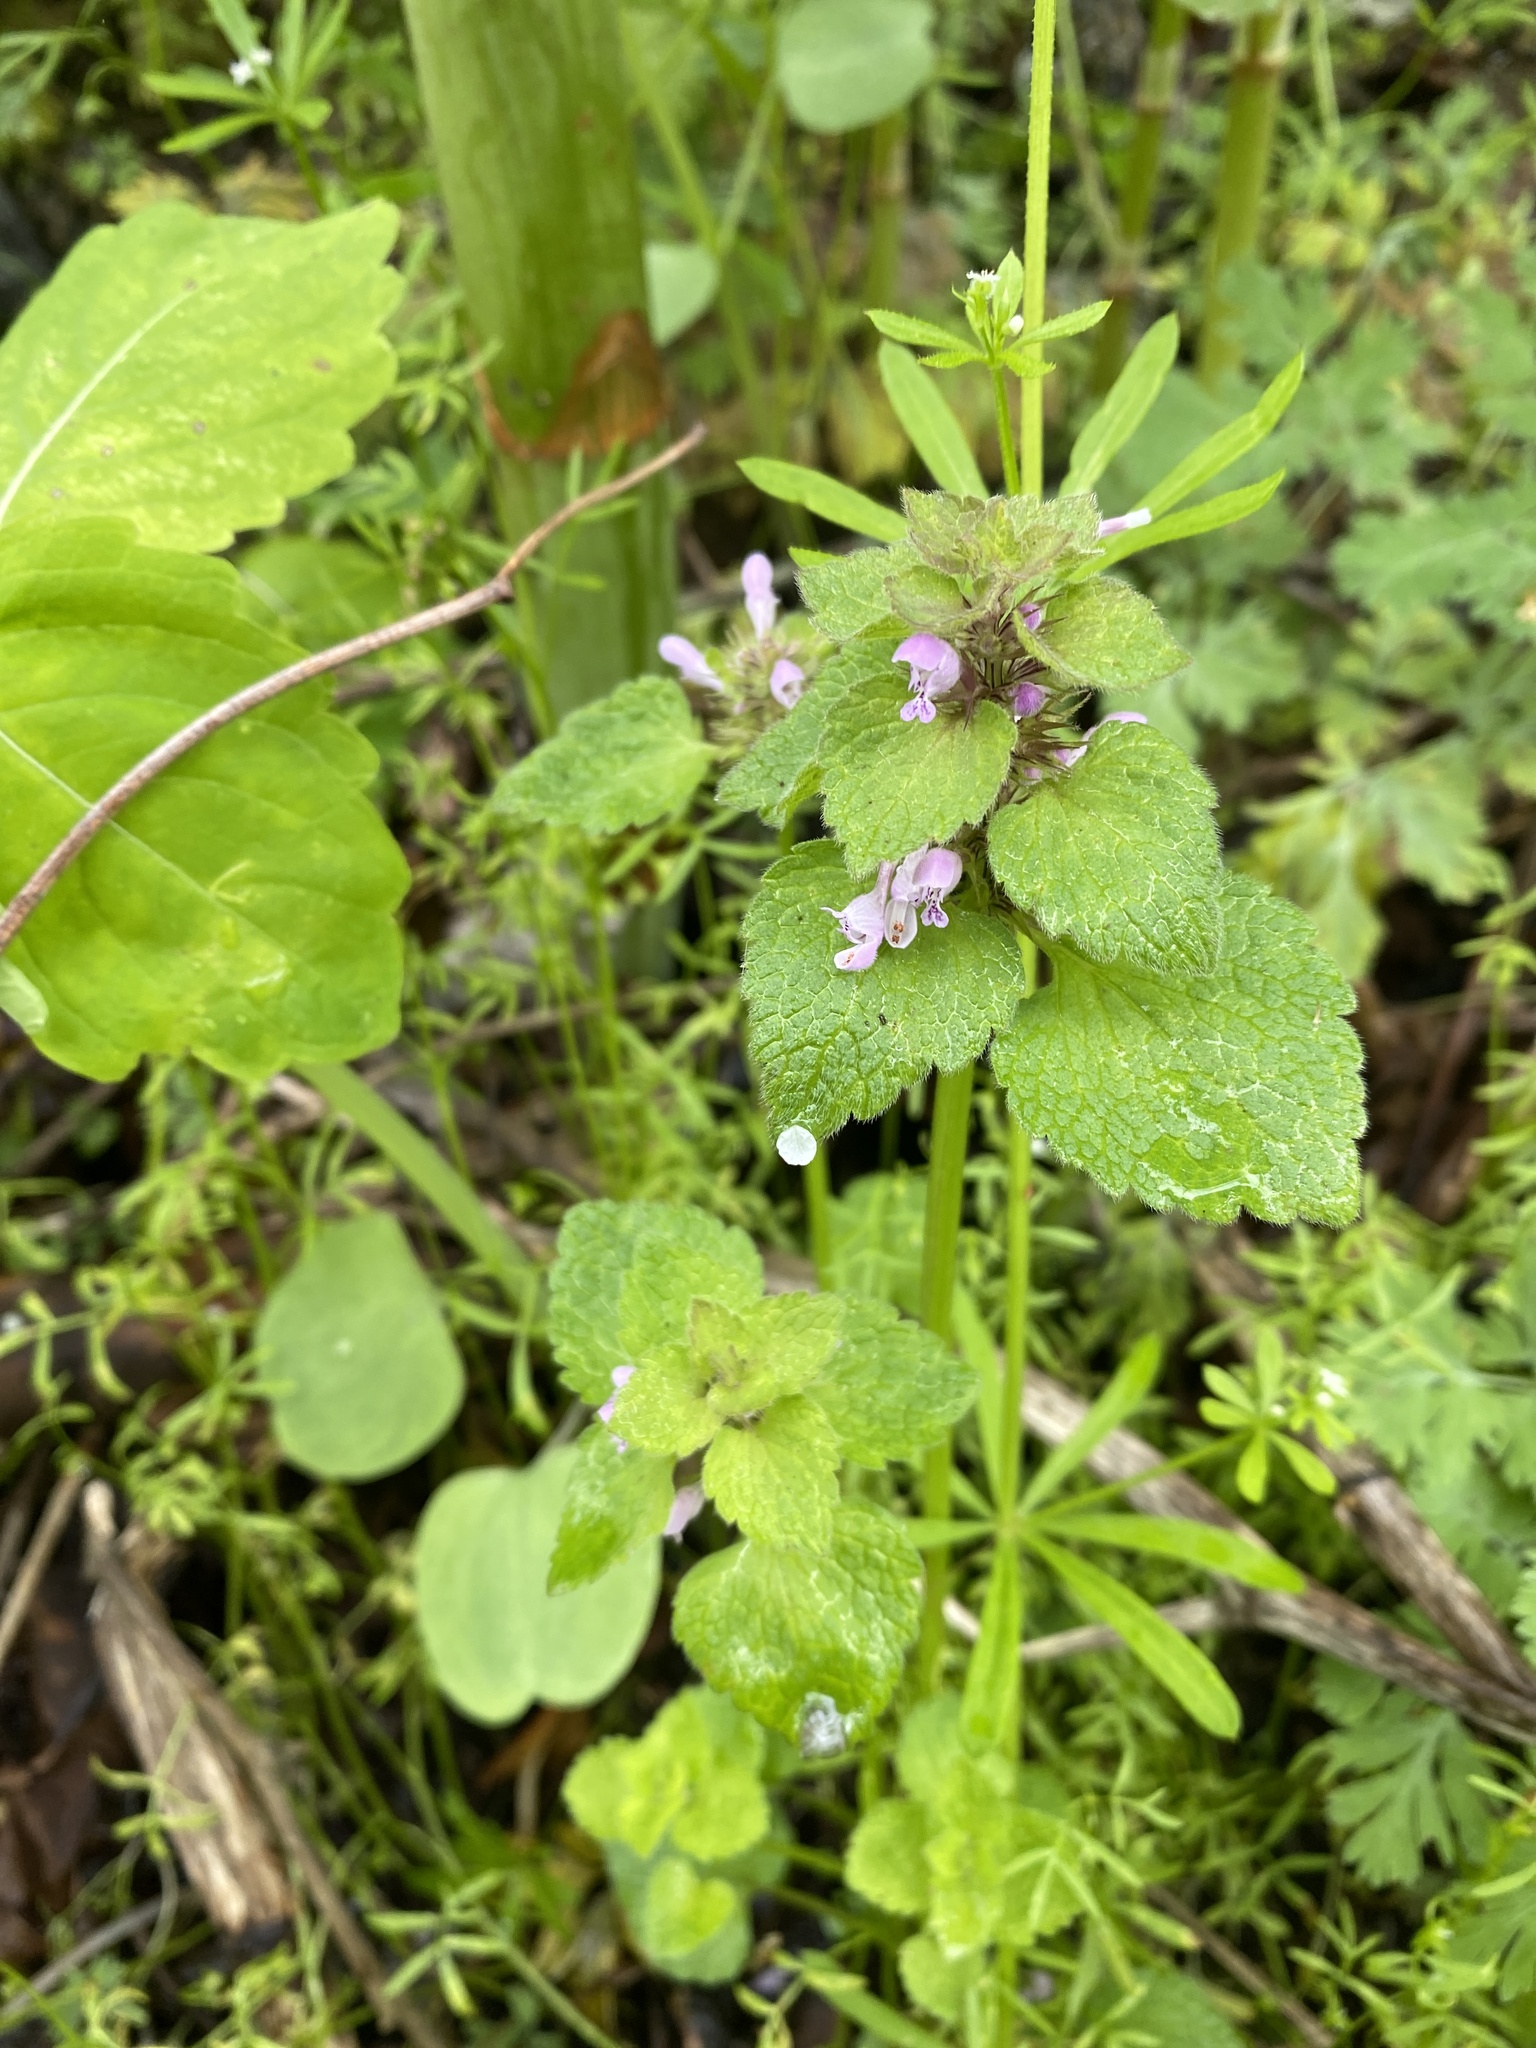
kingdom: Plantae
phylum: Tracheophyta
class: Magnoliopsida
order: Lamiales
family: Lamiaceae
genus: Lamium
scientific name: Lamium purpureum
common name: Red dead-nettle
